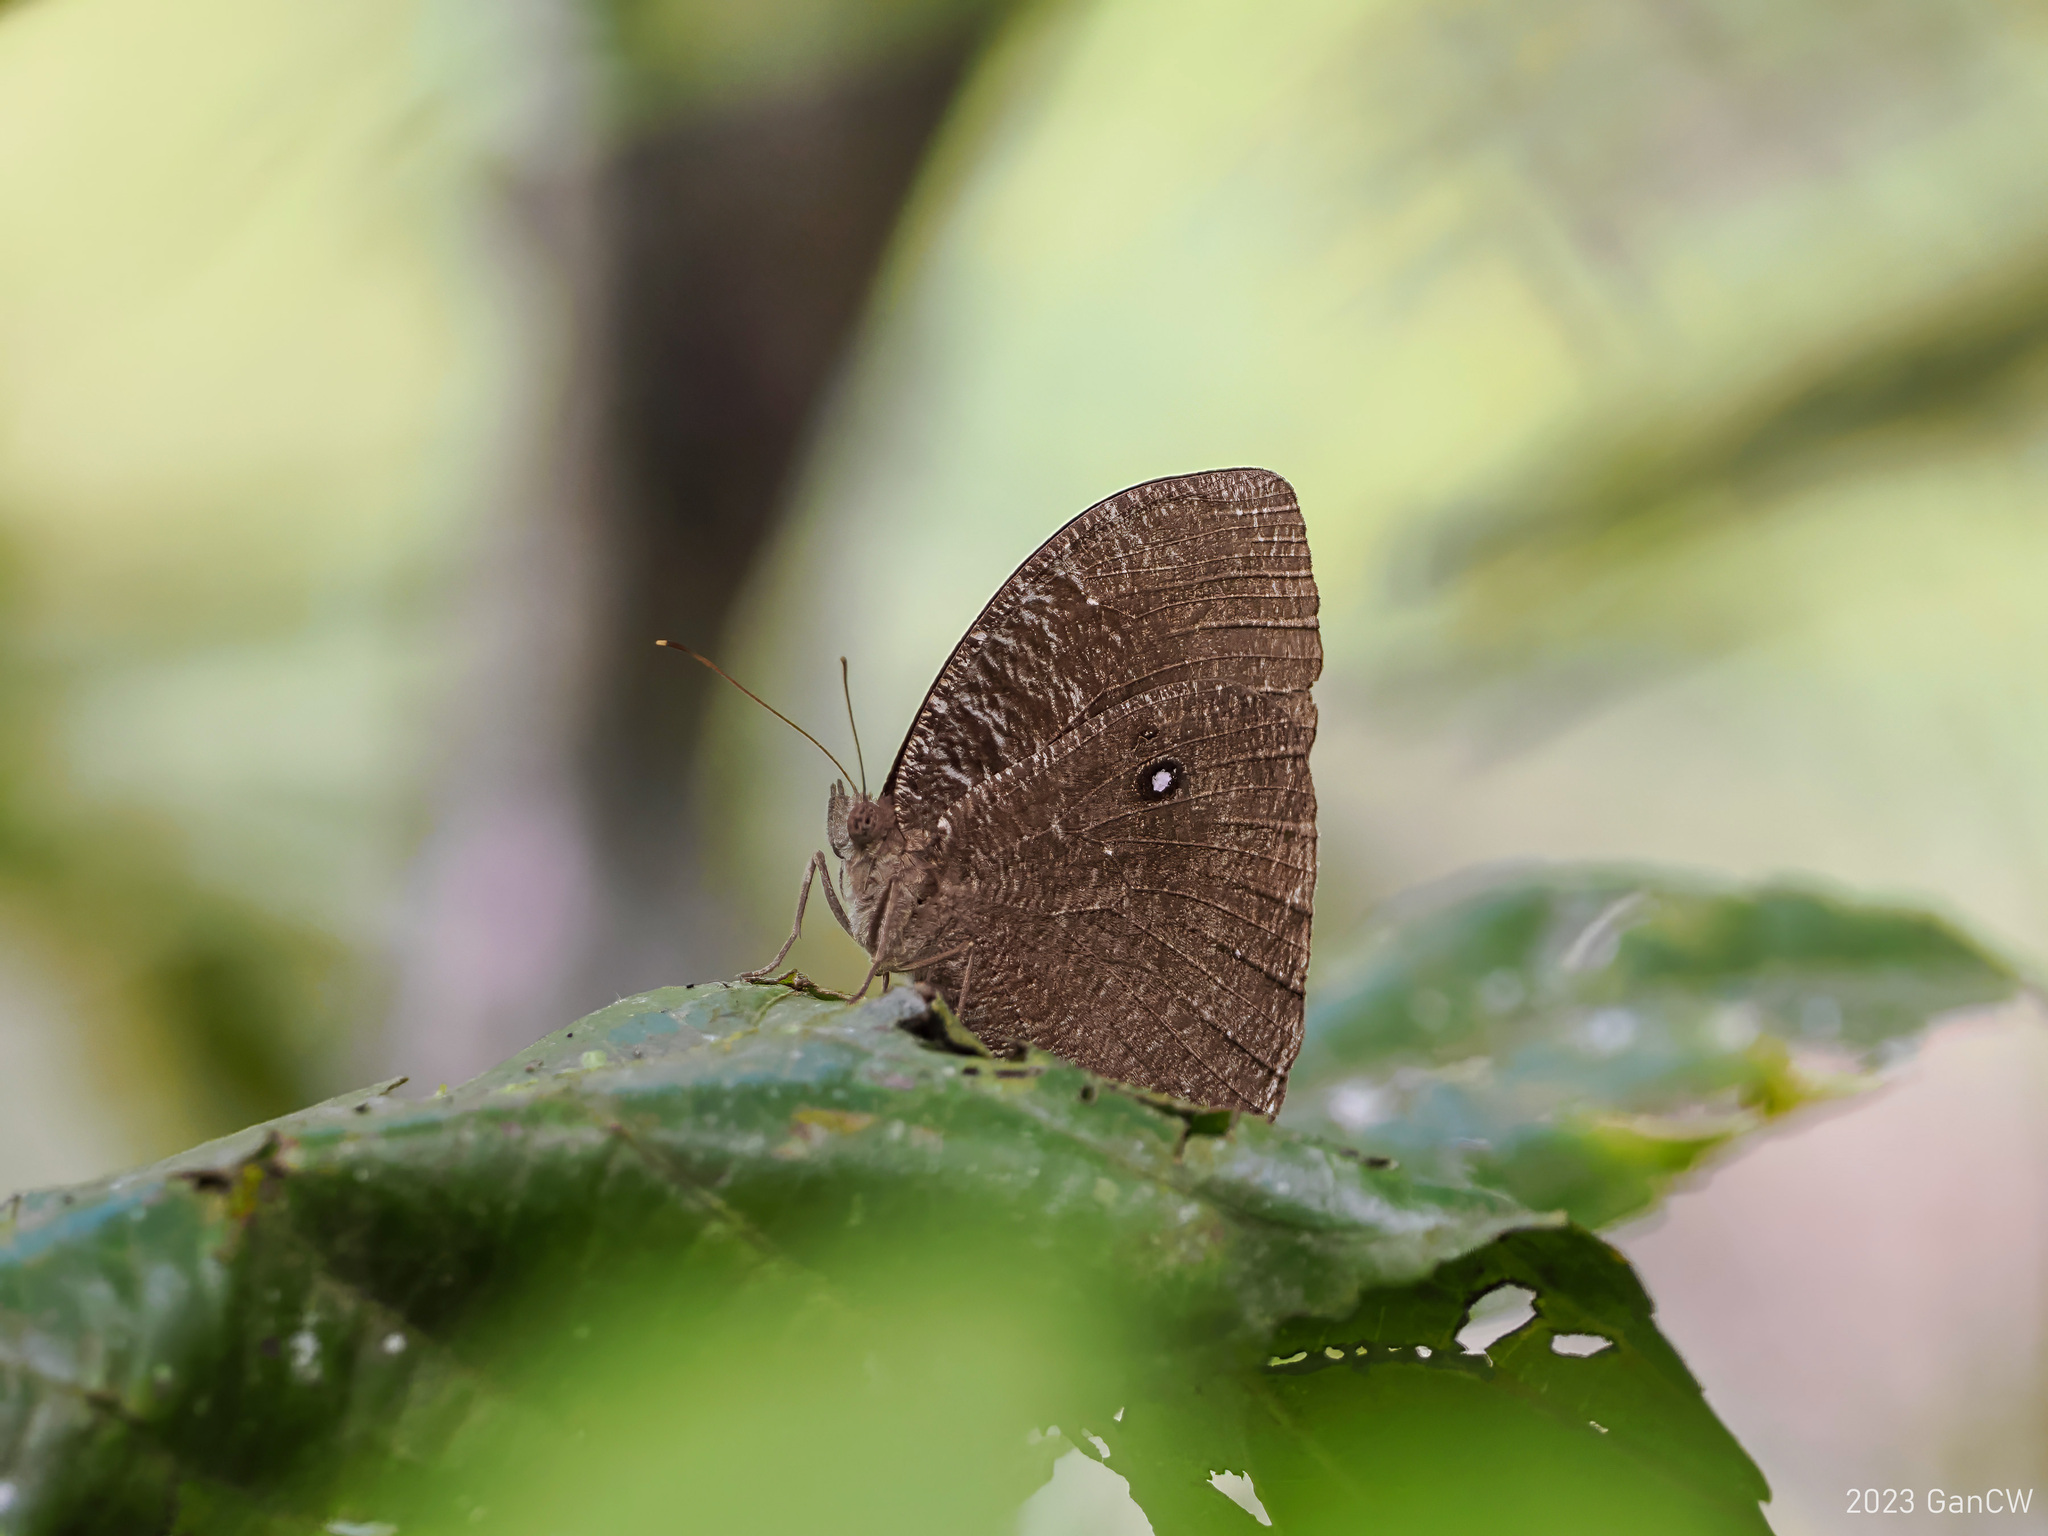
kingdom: Animalia
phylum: Arthropoda
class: Insecta
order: Lepidoptera
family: Nymphalidae
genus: Bletogona
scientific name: Bletogona mycalesis
